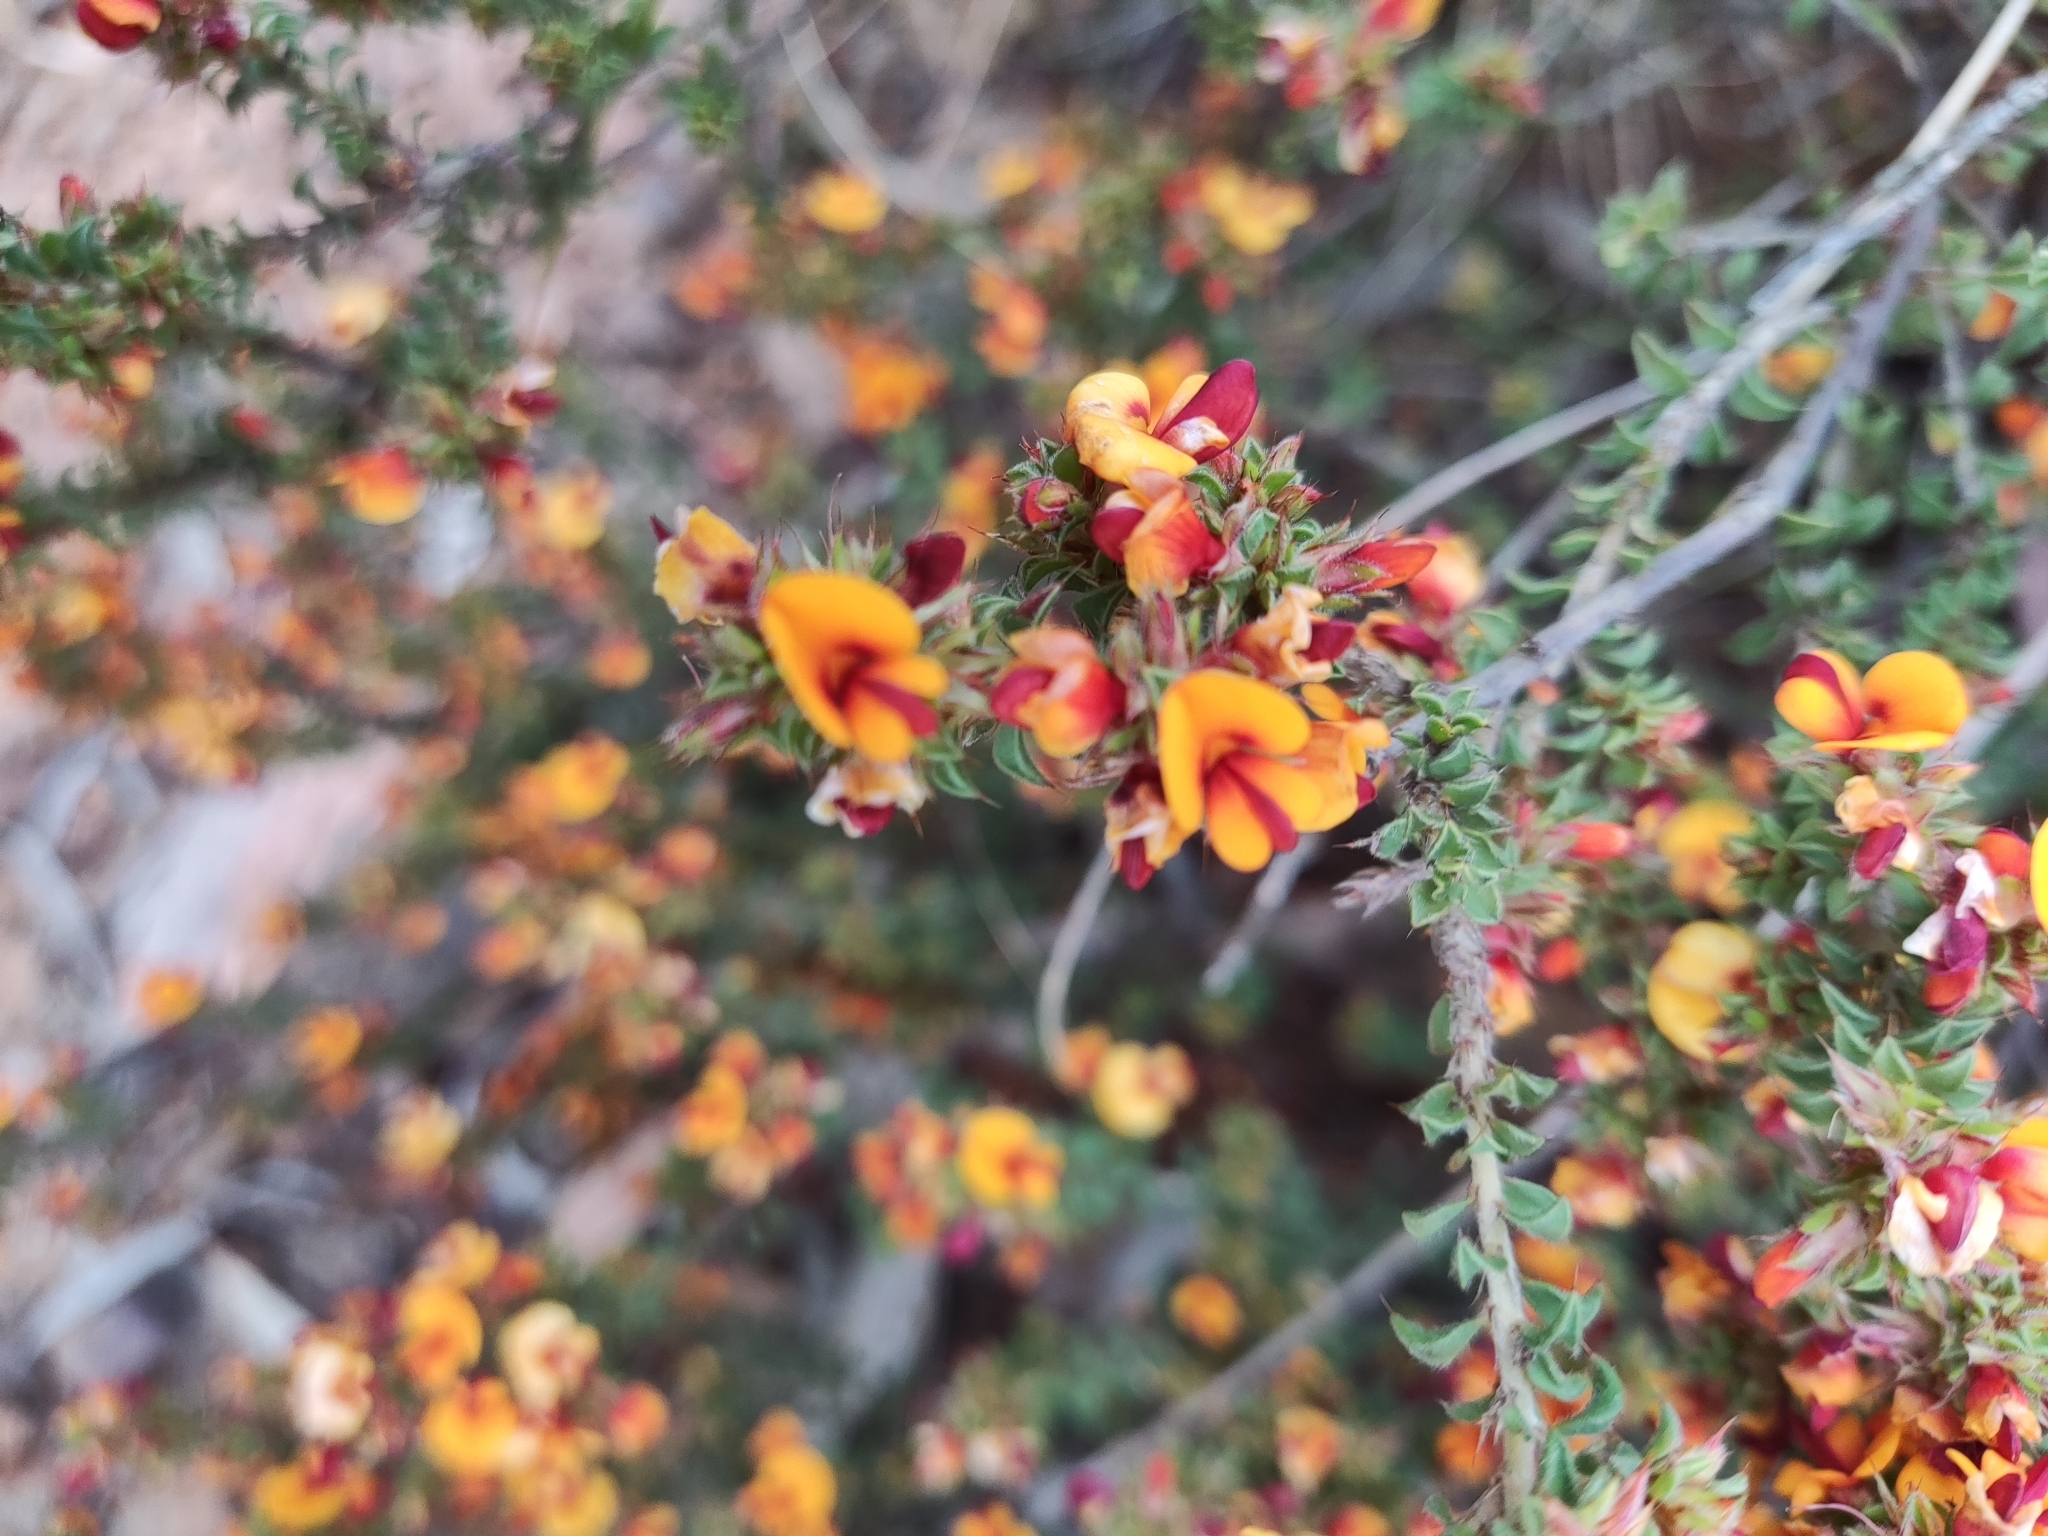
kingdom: Plantae
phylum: Tracheophyta
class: Magnoliopsida
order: Fabales
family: Fabaceae
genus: Pultenaea
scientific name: Pultenaea procumbens
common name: Heathy bush-pea
